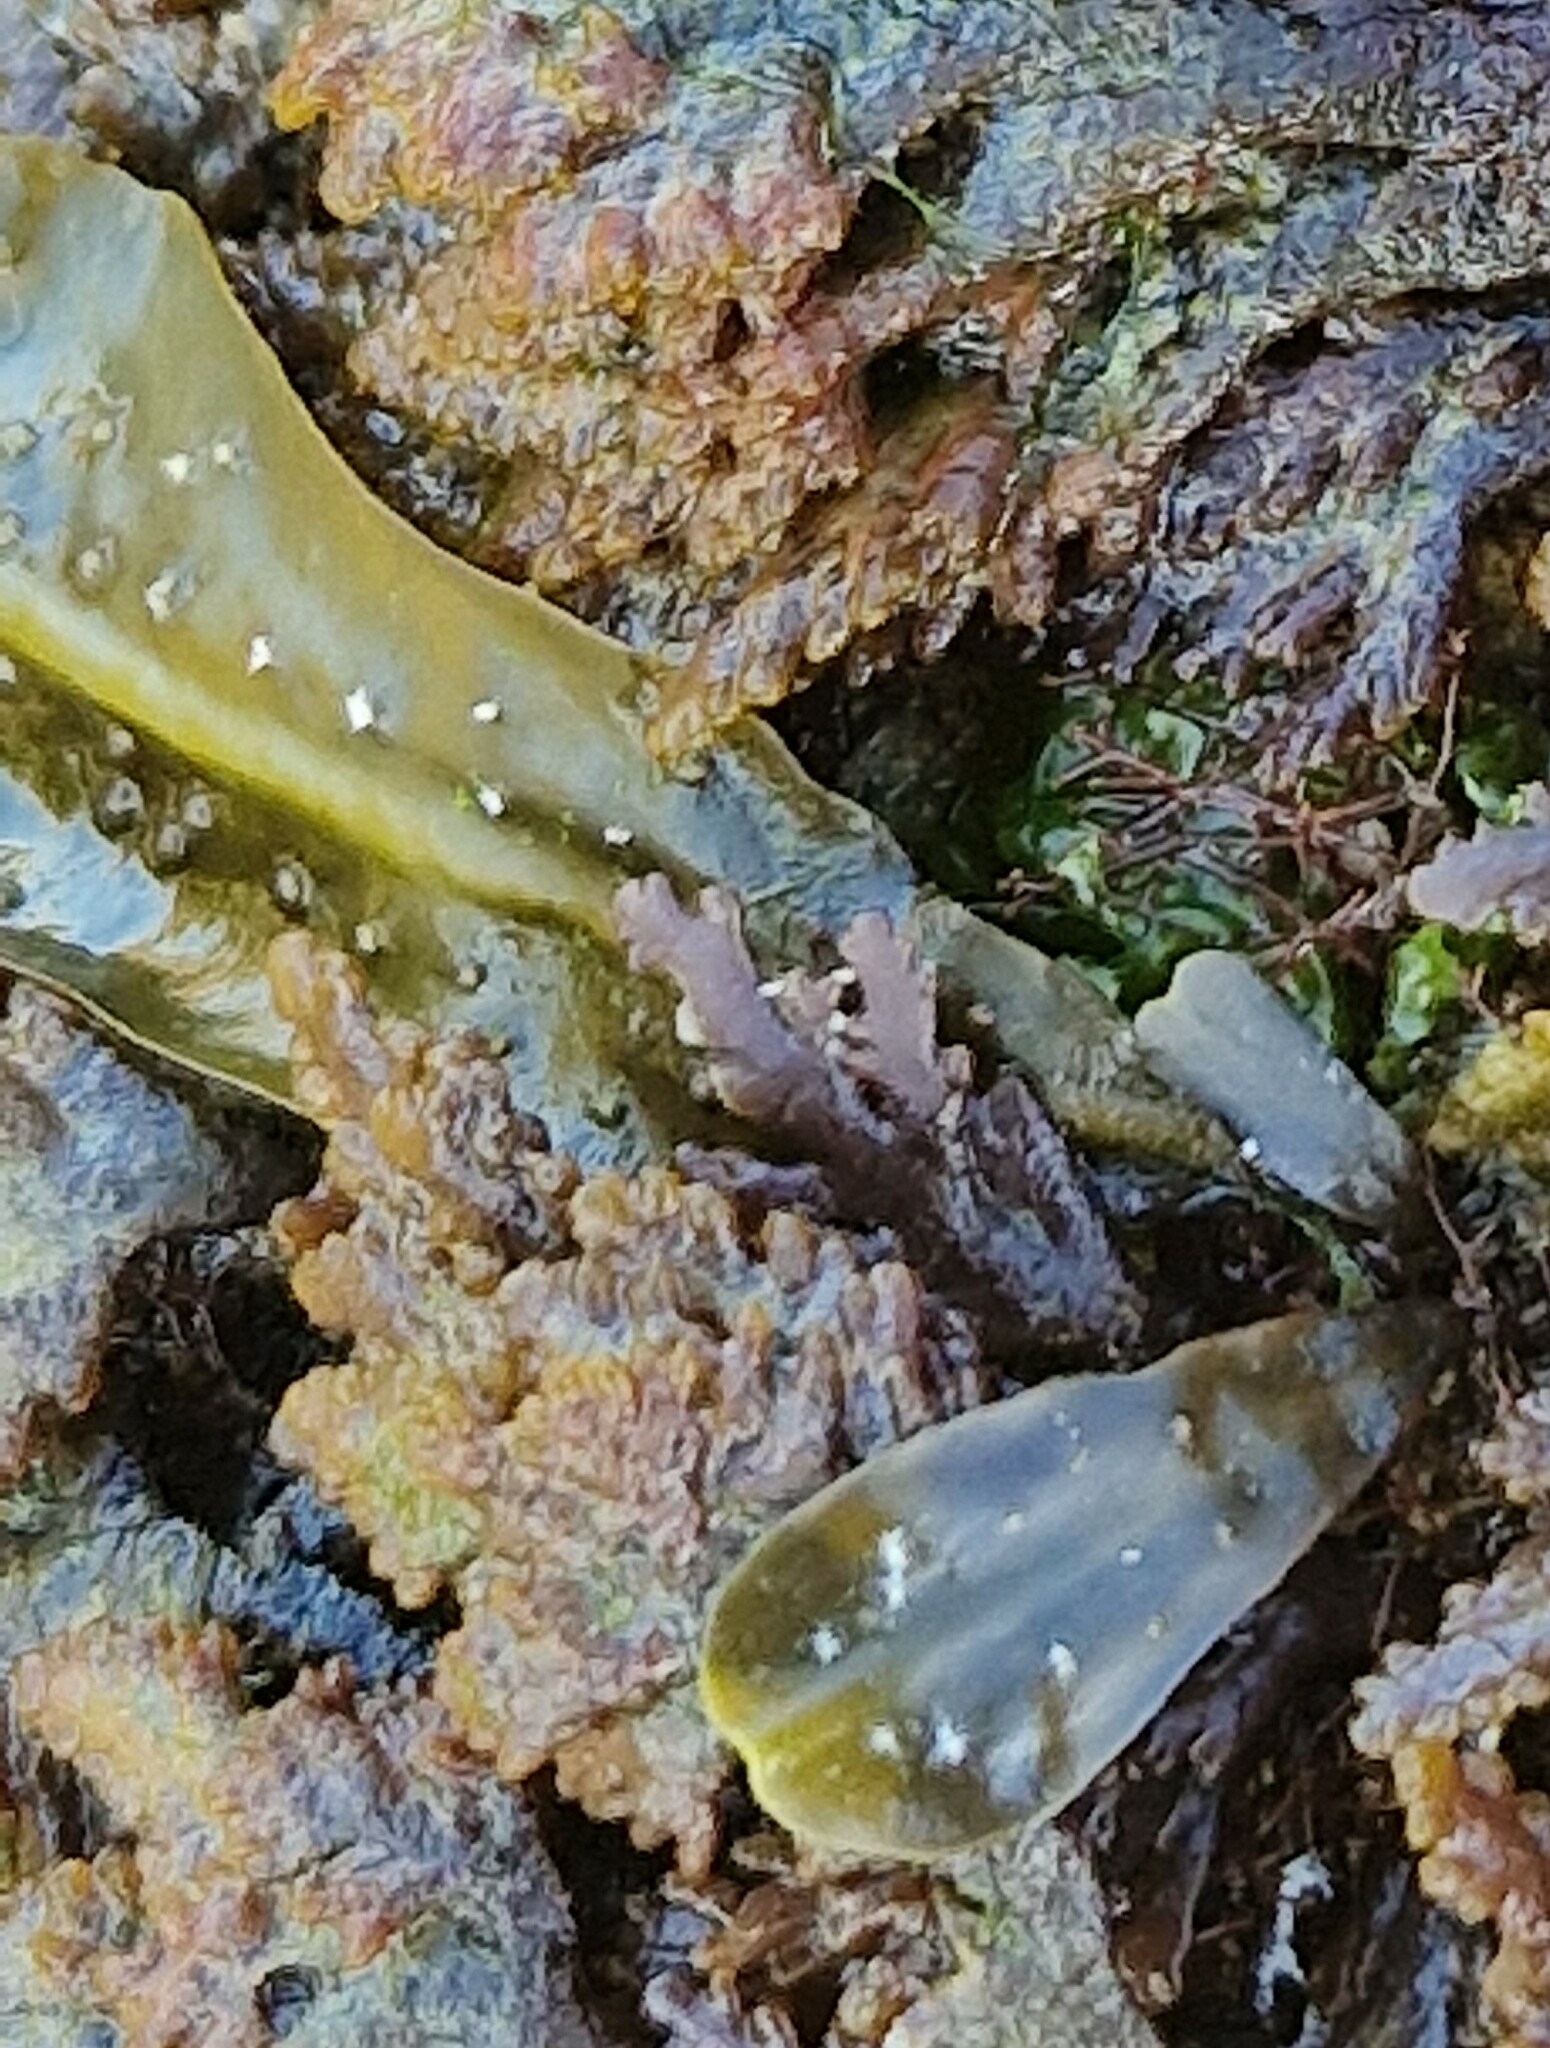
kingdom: Plantae
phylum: Rhodophyta
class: Florideophyceae
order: Ceramiales
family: Rhodomelaceae
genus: Laurencia
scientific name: Laurencia Osmundea pinnatifida
